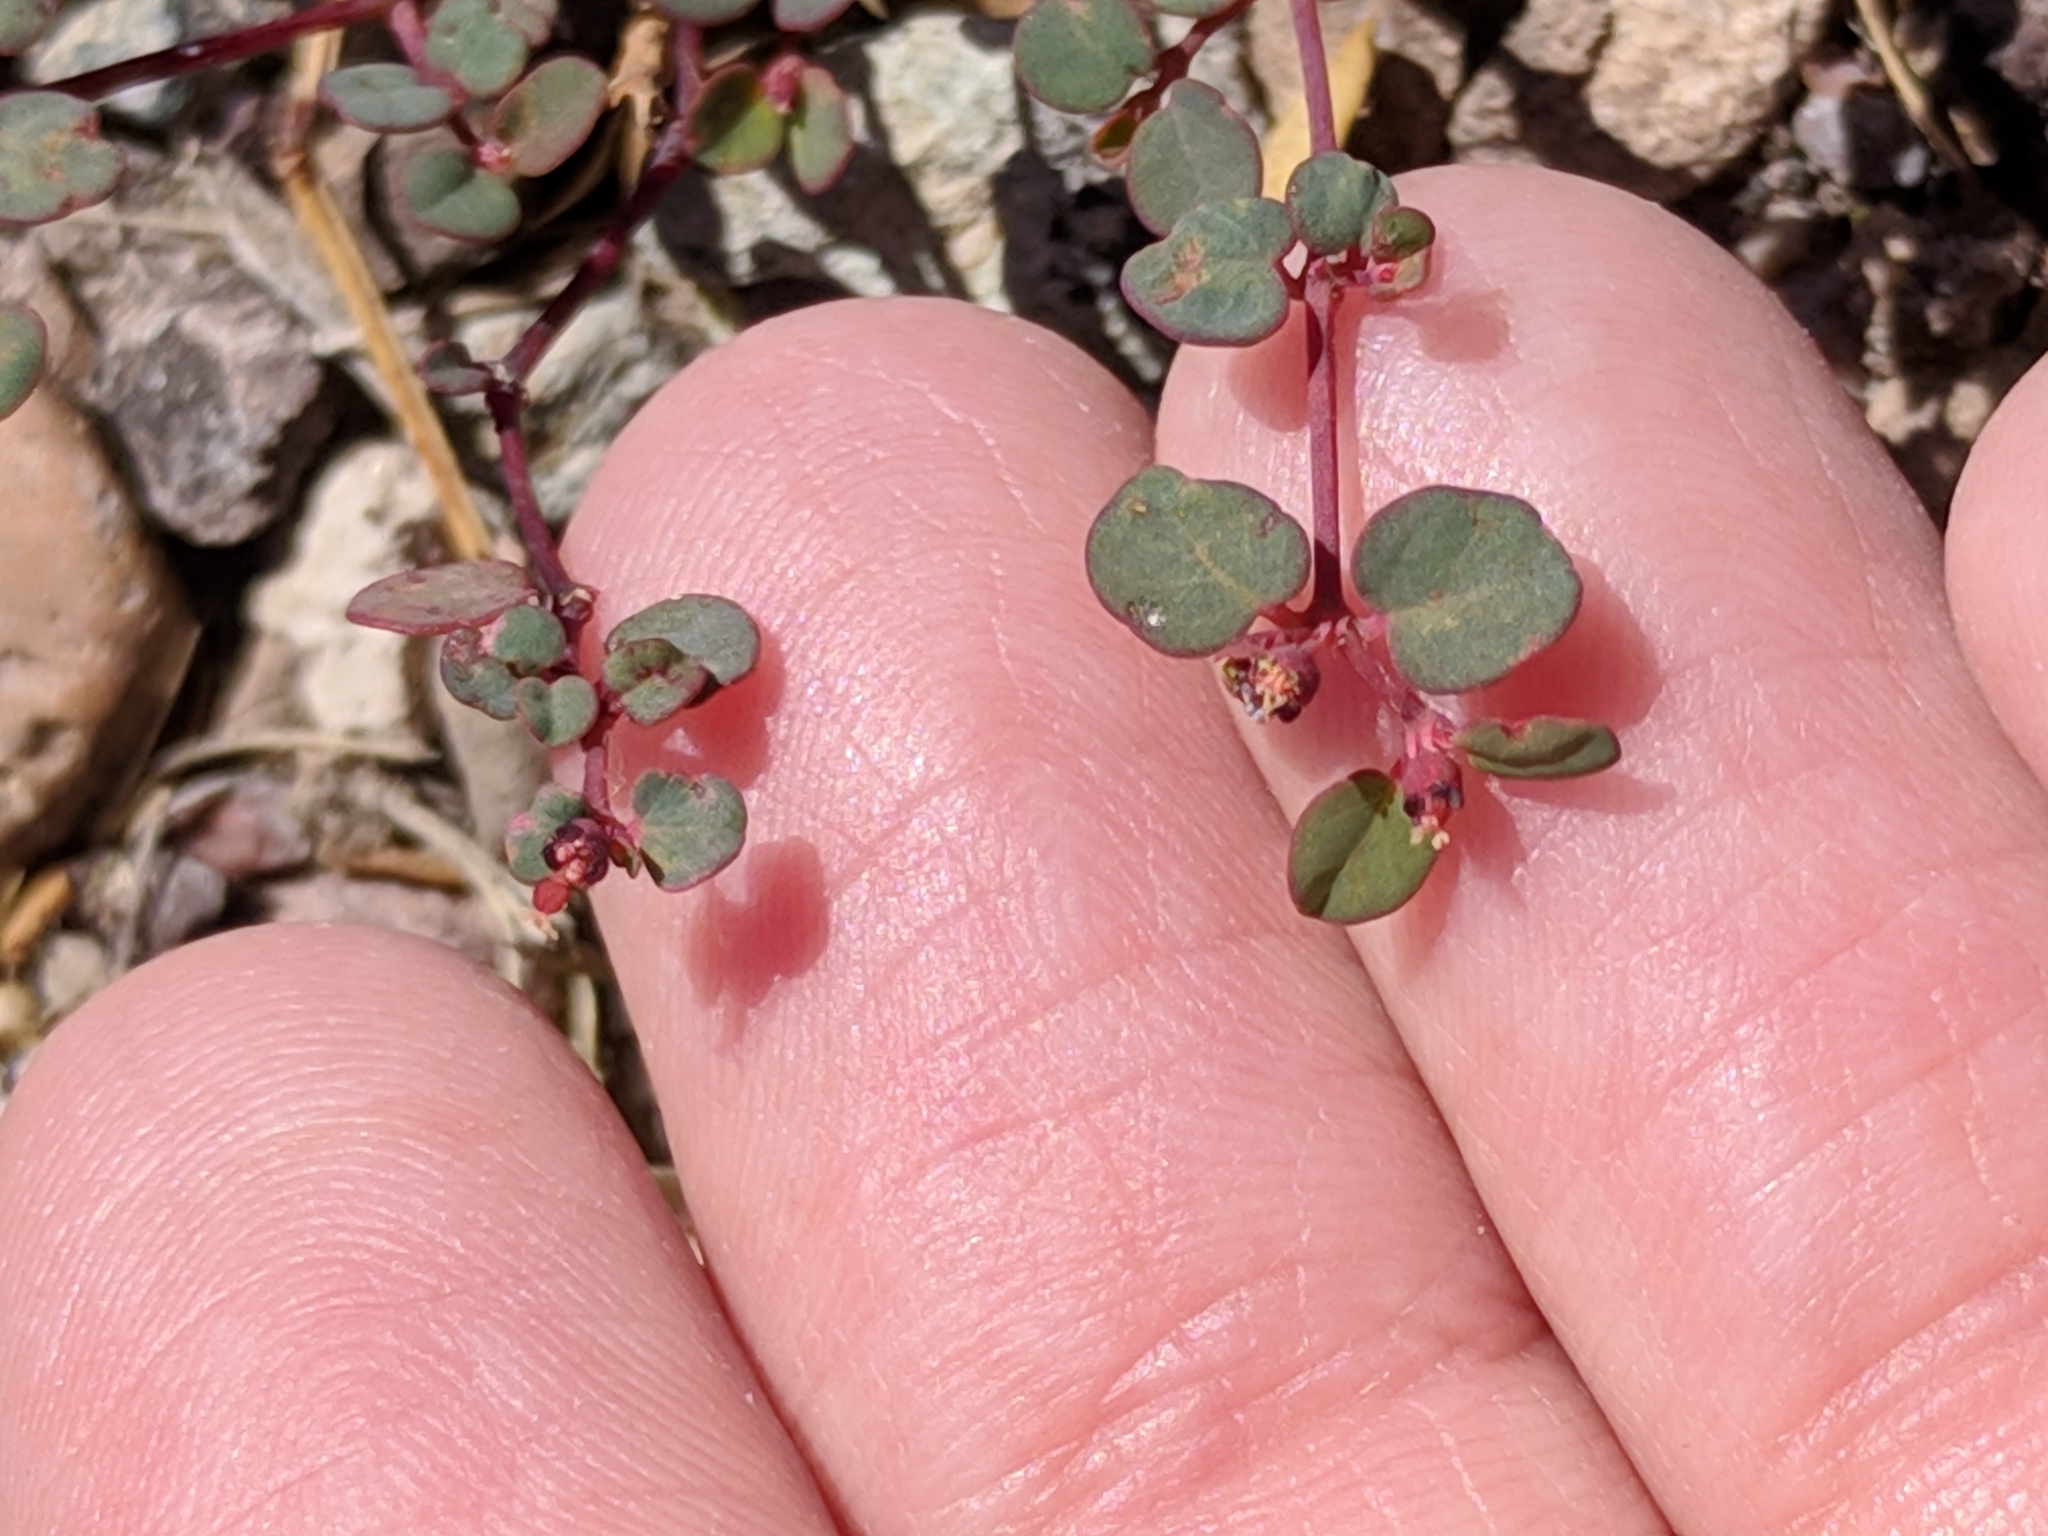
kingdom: Plantae
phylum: Tracheophyta
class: Magnoliopsida
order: Malpighiales
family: Euphorbiaceae
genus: Euphorbia
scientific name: Euphorbia simulans
